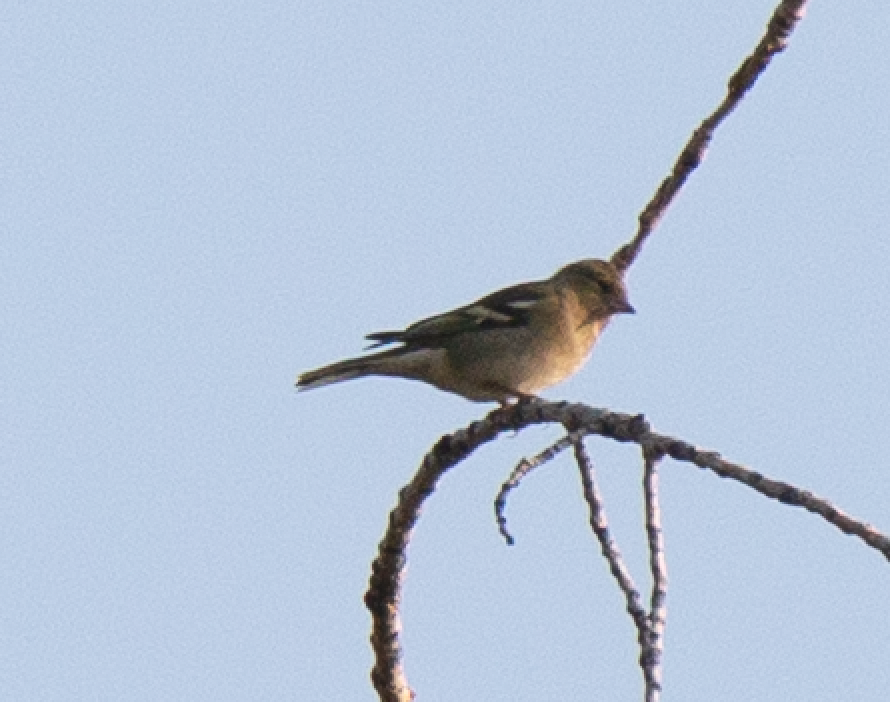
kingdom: Animalia
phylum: Chordata
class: Aves
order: Passeriformes
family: Fringillidae
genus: Fringilla
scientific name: Fringilla coelebs
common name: Common chaffinch
